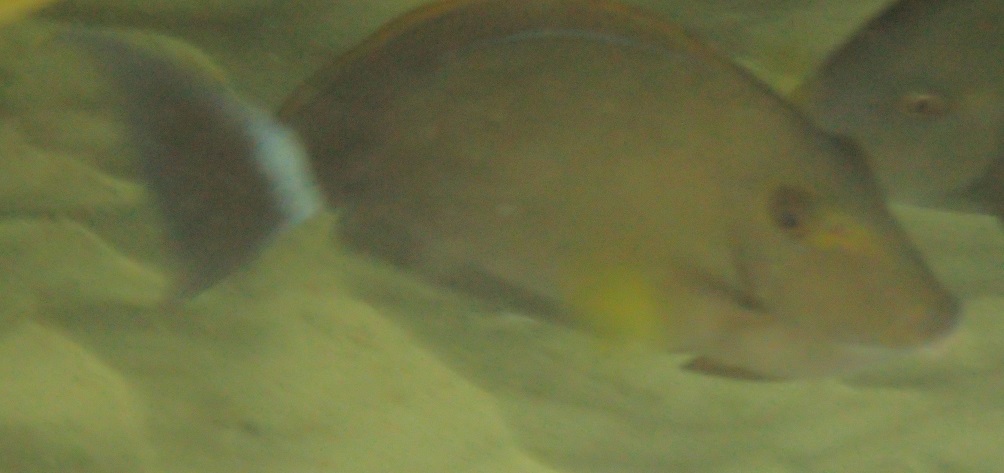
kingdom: Animalia
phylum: Chordata
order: Perciformes
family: Acanthuridae
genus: Acanthurus
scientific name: Acanthurus grammoptilus
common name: Finelined surgeonfish
